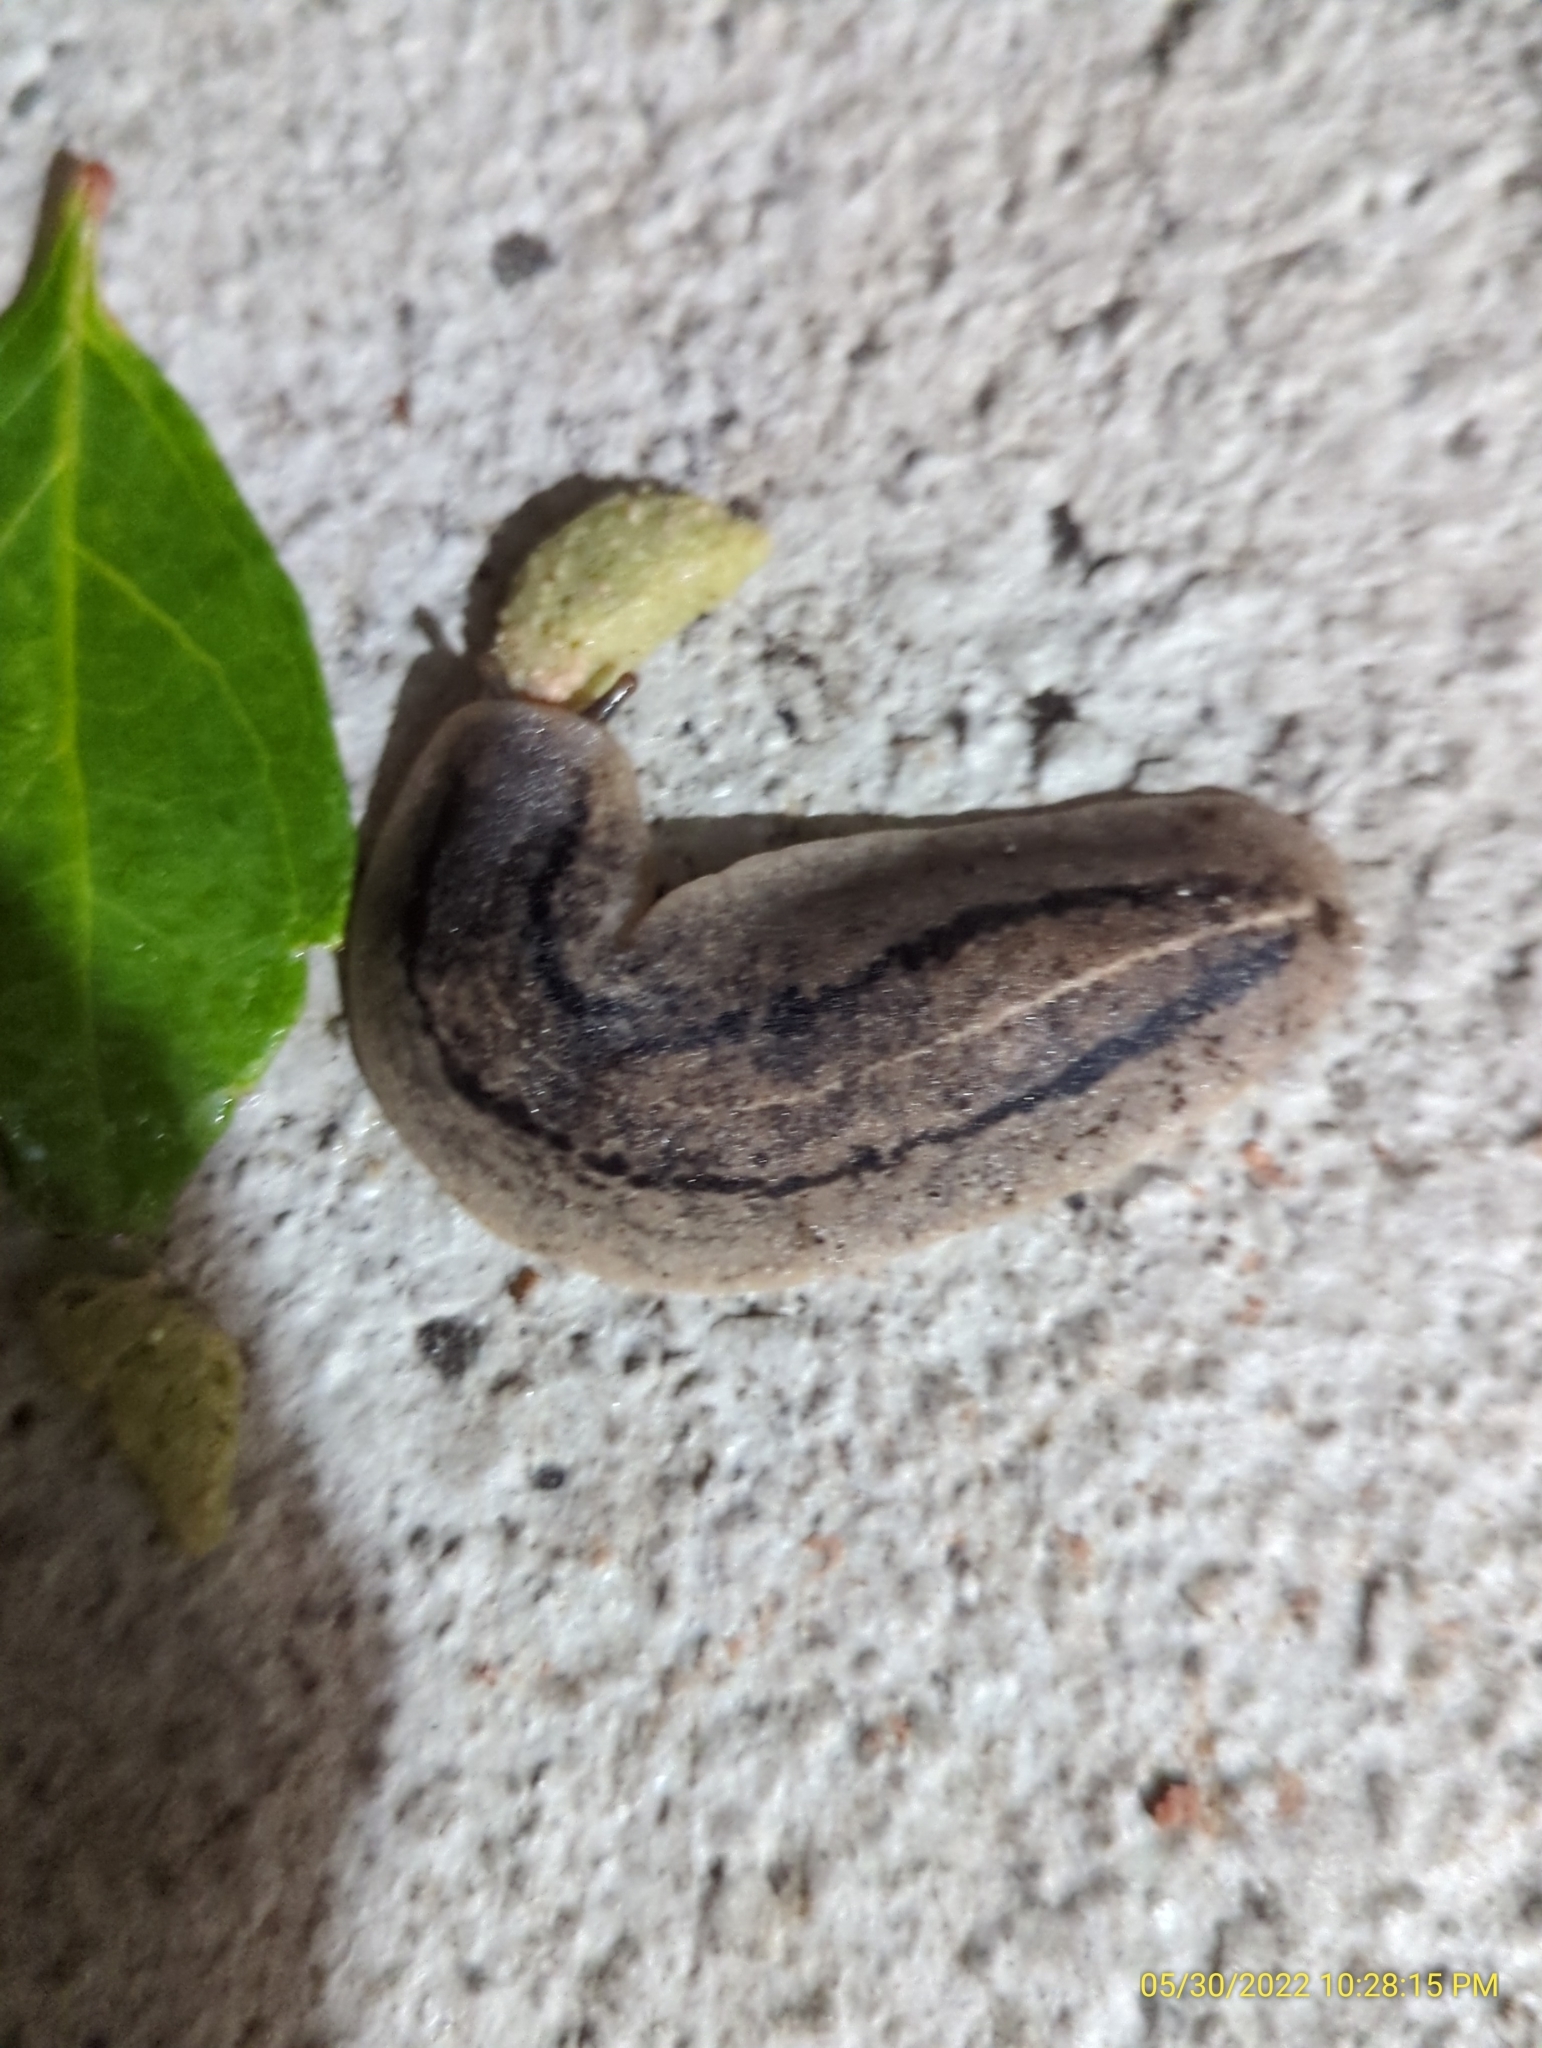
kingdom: Animalia
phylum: Mollusca
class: Gastropoda
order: Systellommatophora
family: Veronicellidae
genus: Leidyula
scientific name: Leidyula floridana
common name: Florida leatherleaf
